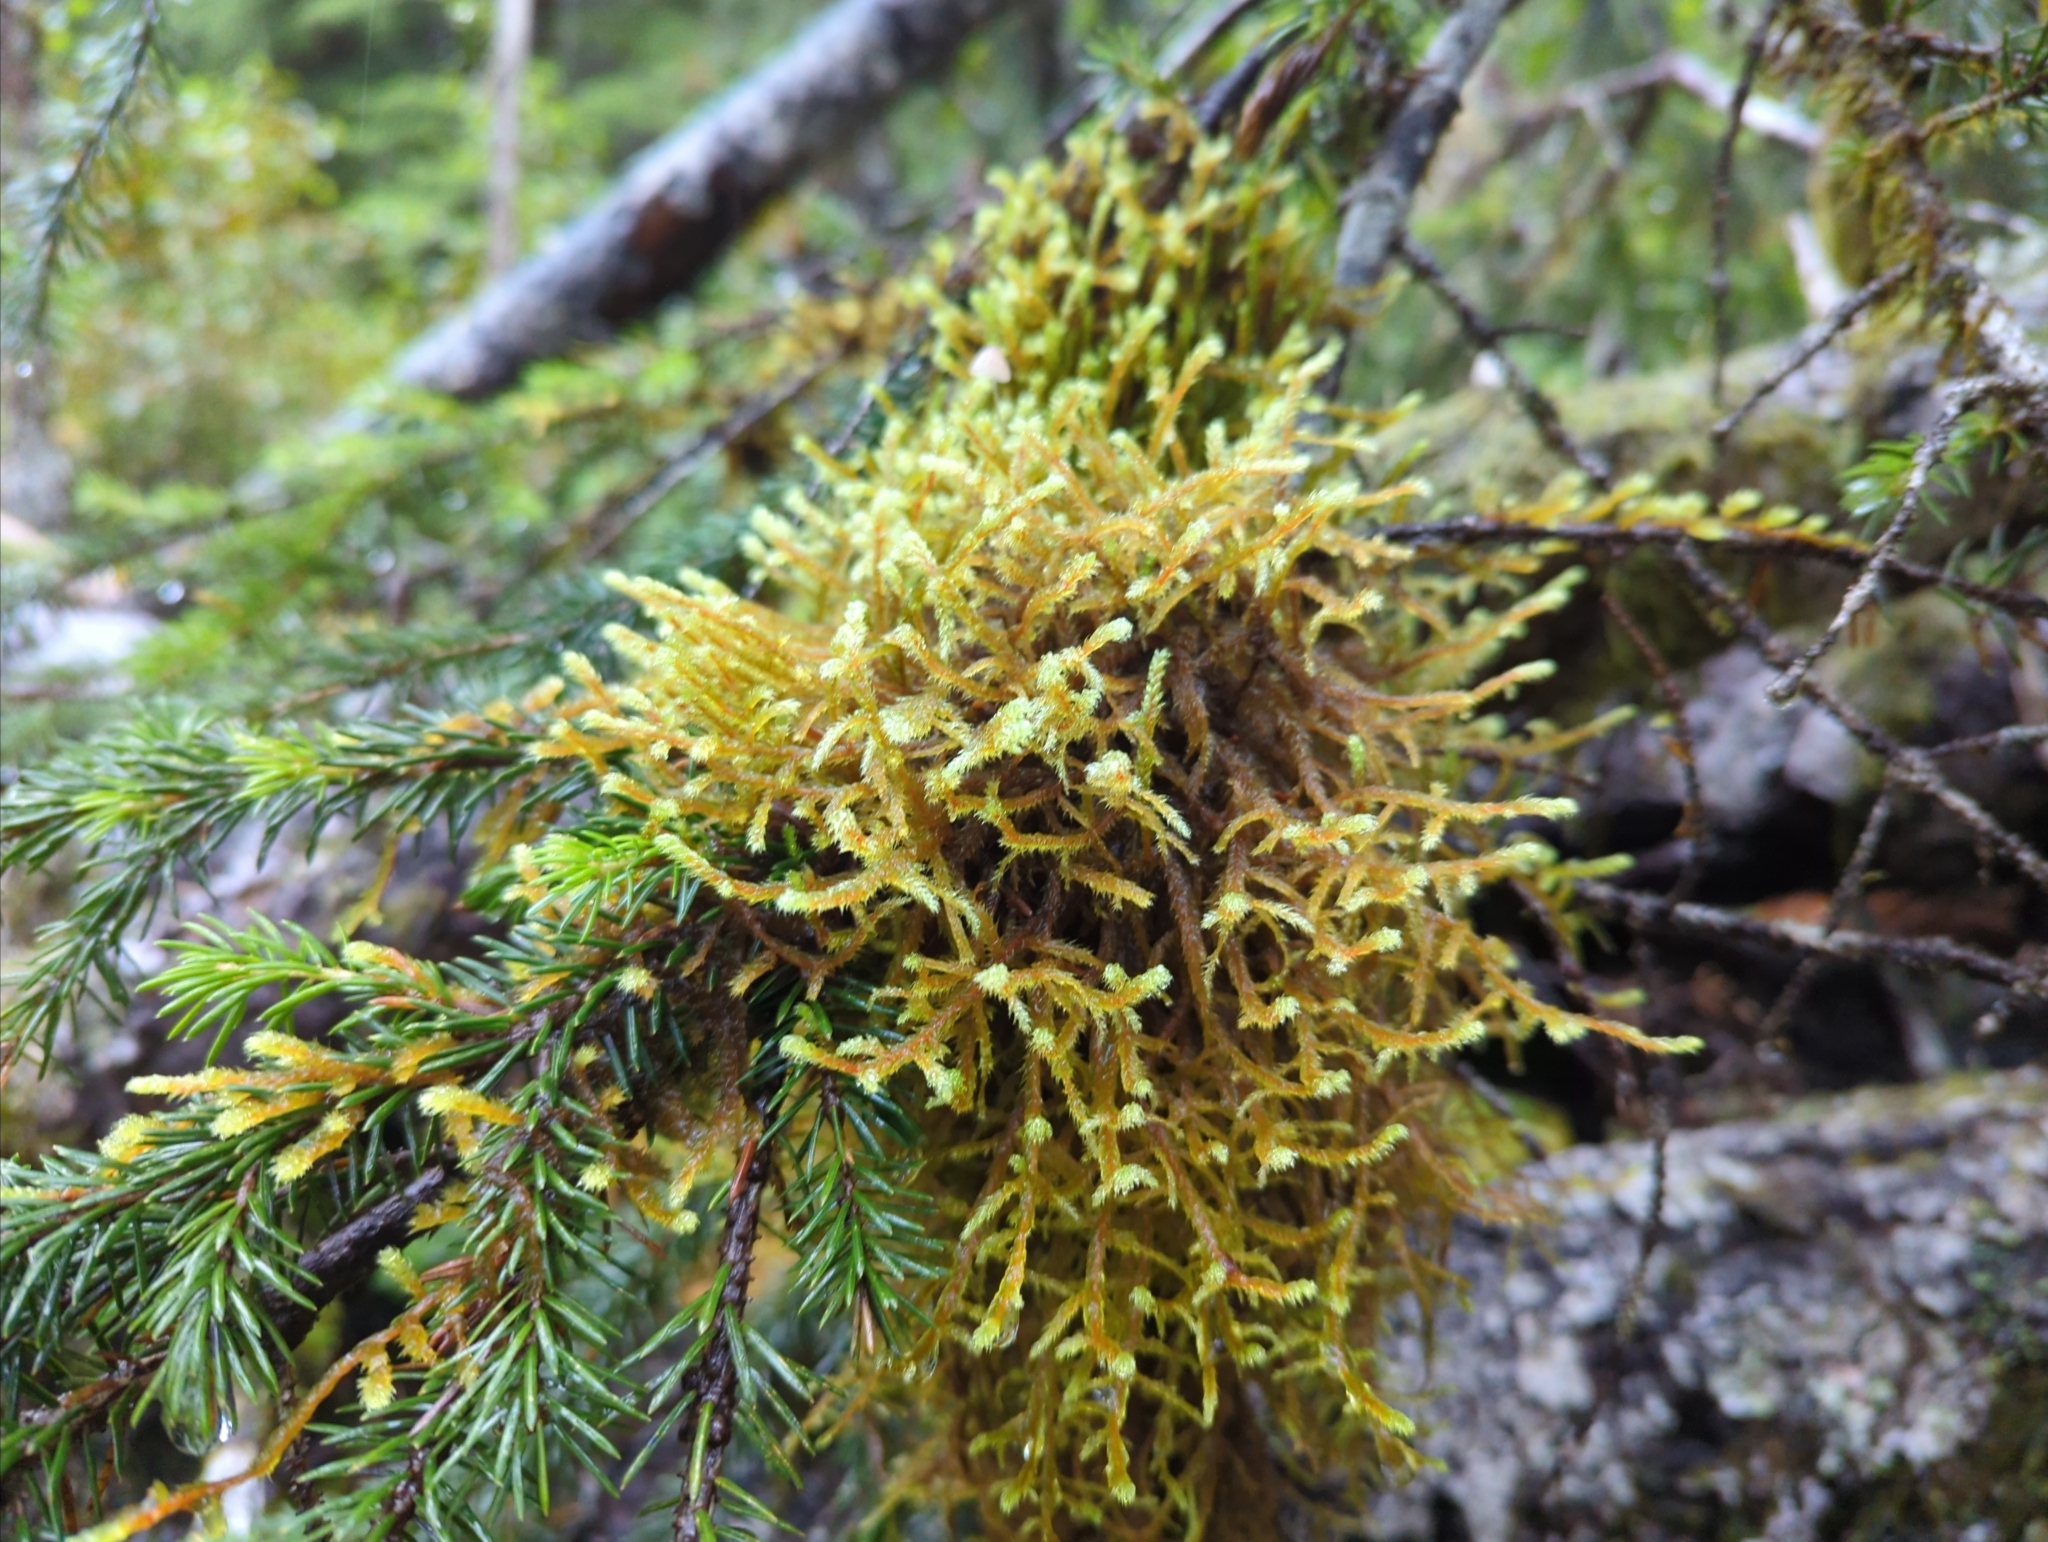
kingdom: Plantae
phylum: Bryophyta
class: Bryopsida
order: Hypnales
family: Antitrichiaceae
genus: Antitrichia
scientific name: Antitrichia curtipendula
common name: Pendulous wing-moss
